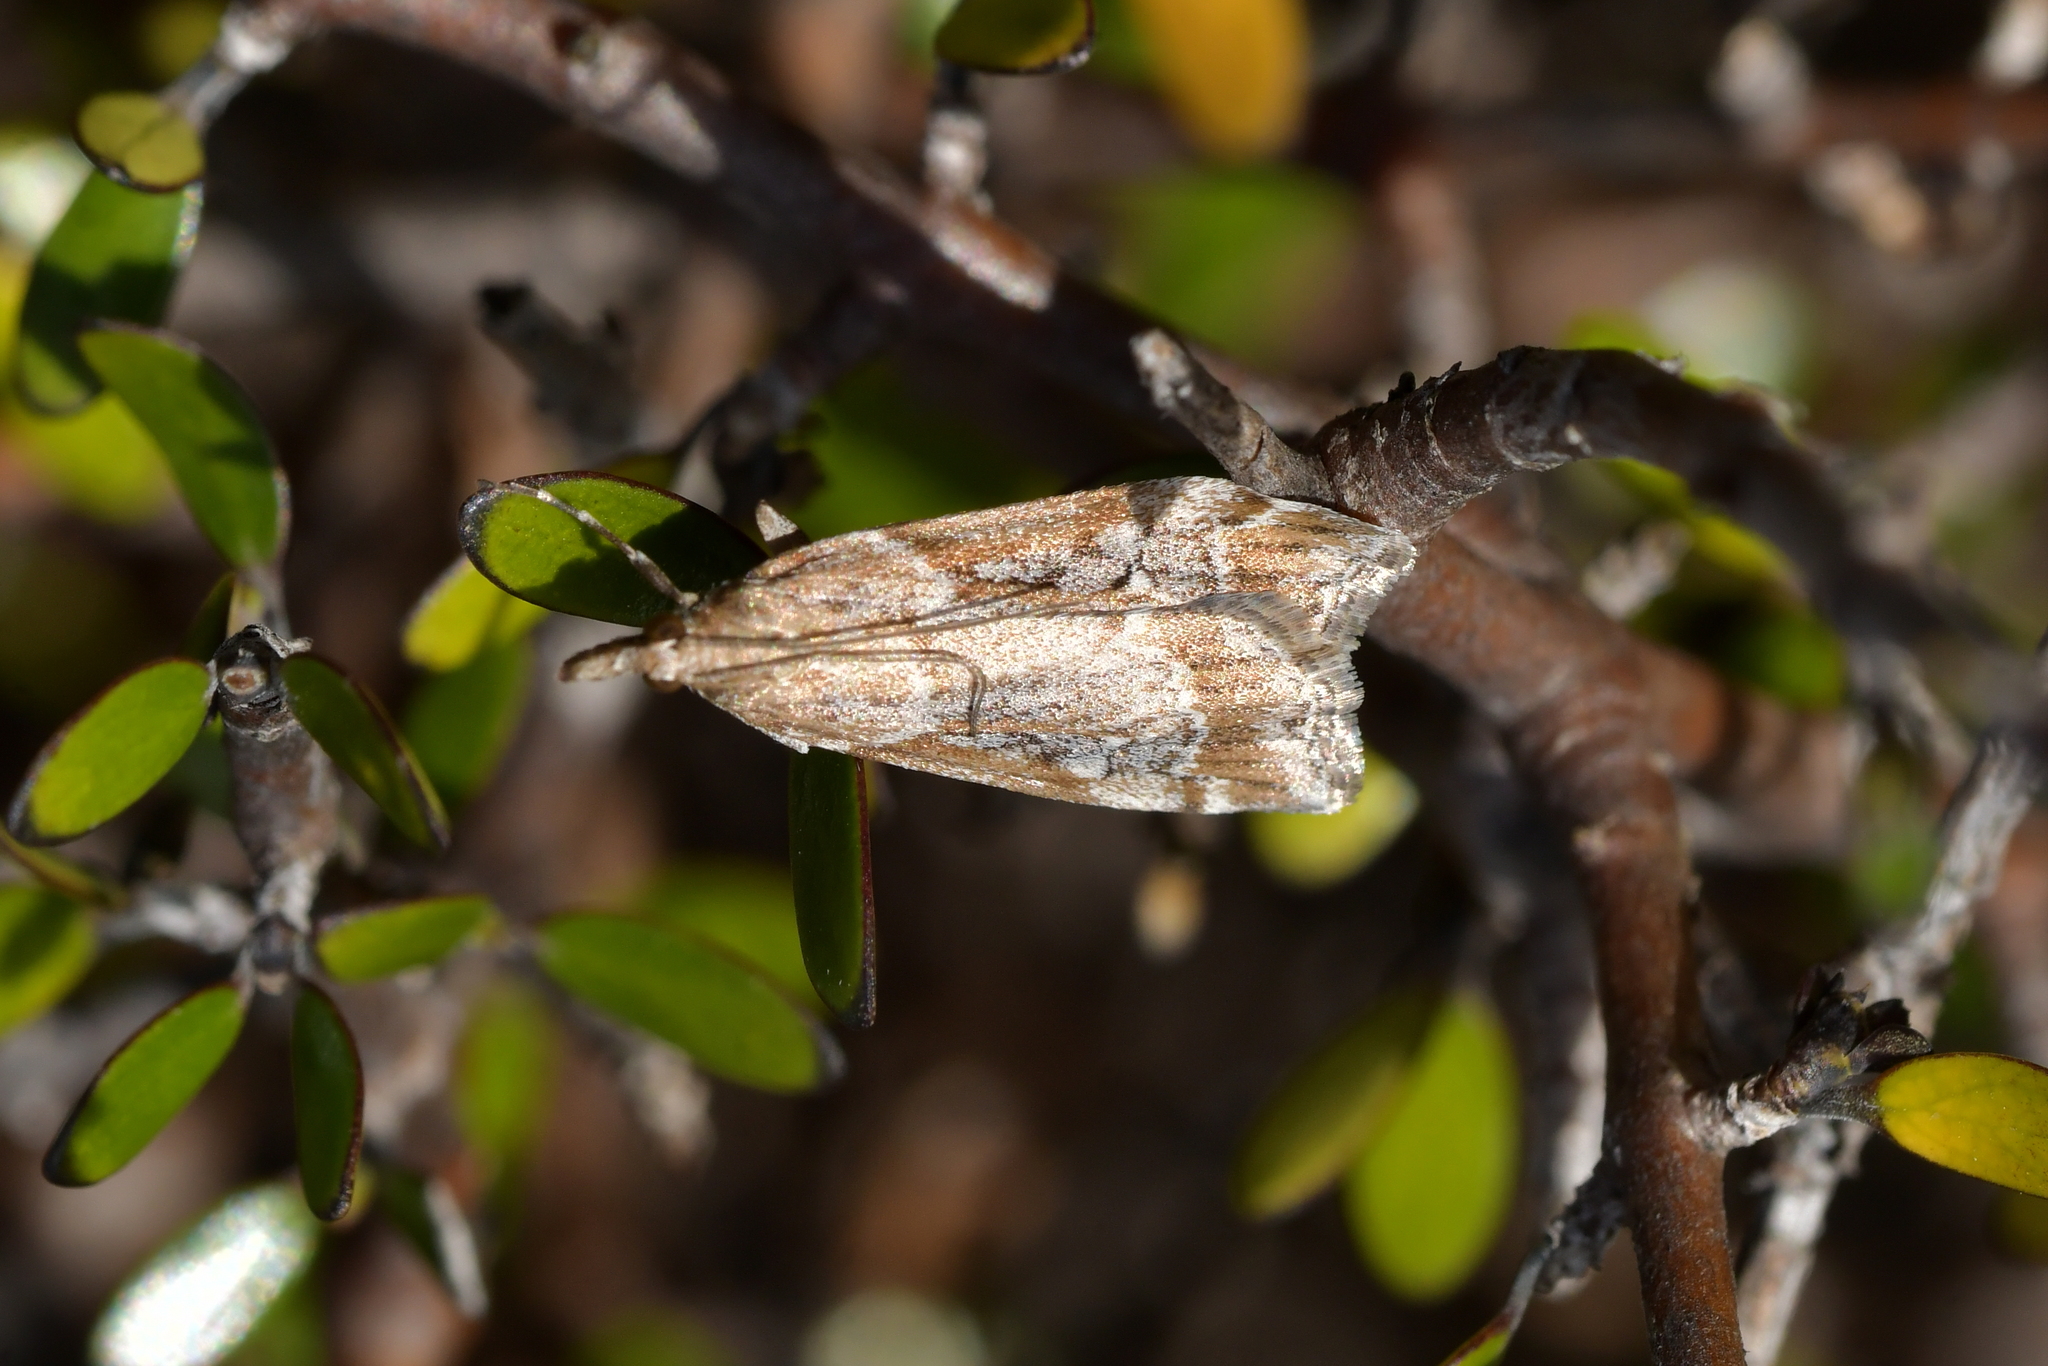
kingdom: Animalia
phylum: Arthropoda
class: Insecta
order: Lepidoptera
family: Crambidae
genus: Eudonia
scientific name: Eudonia chalara
